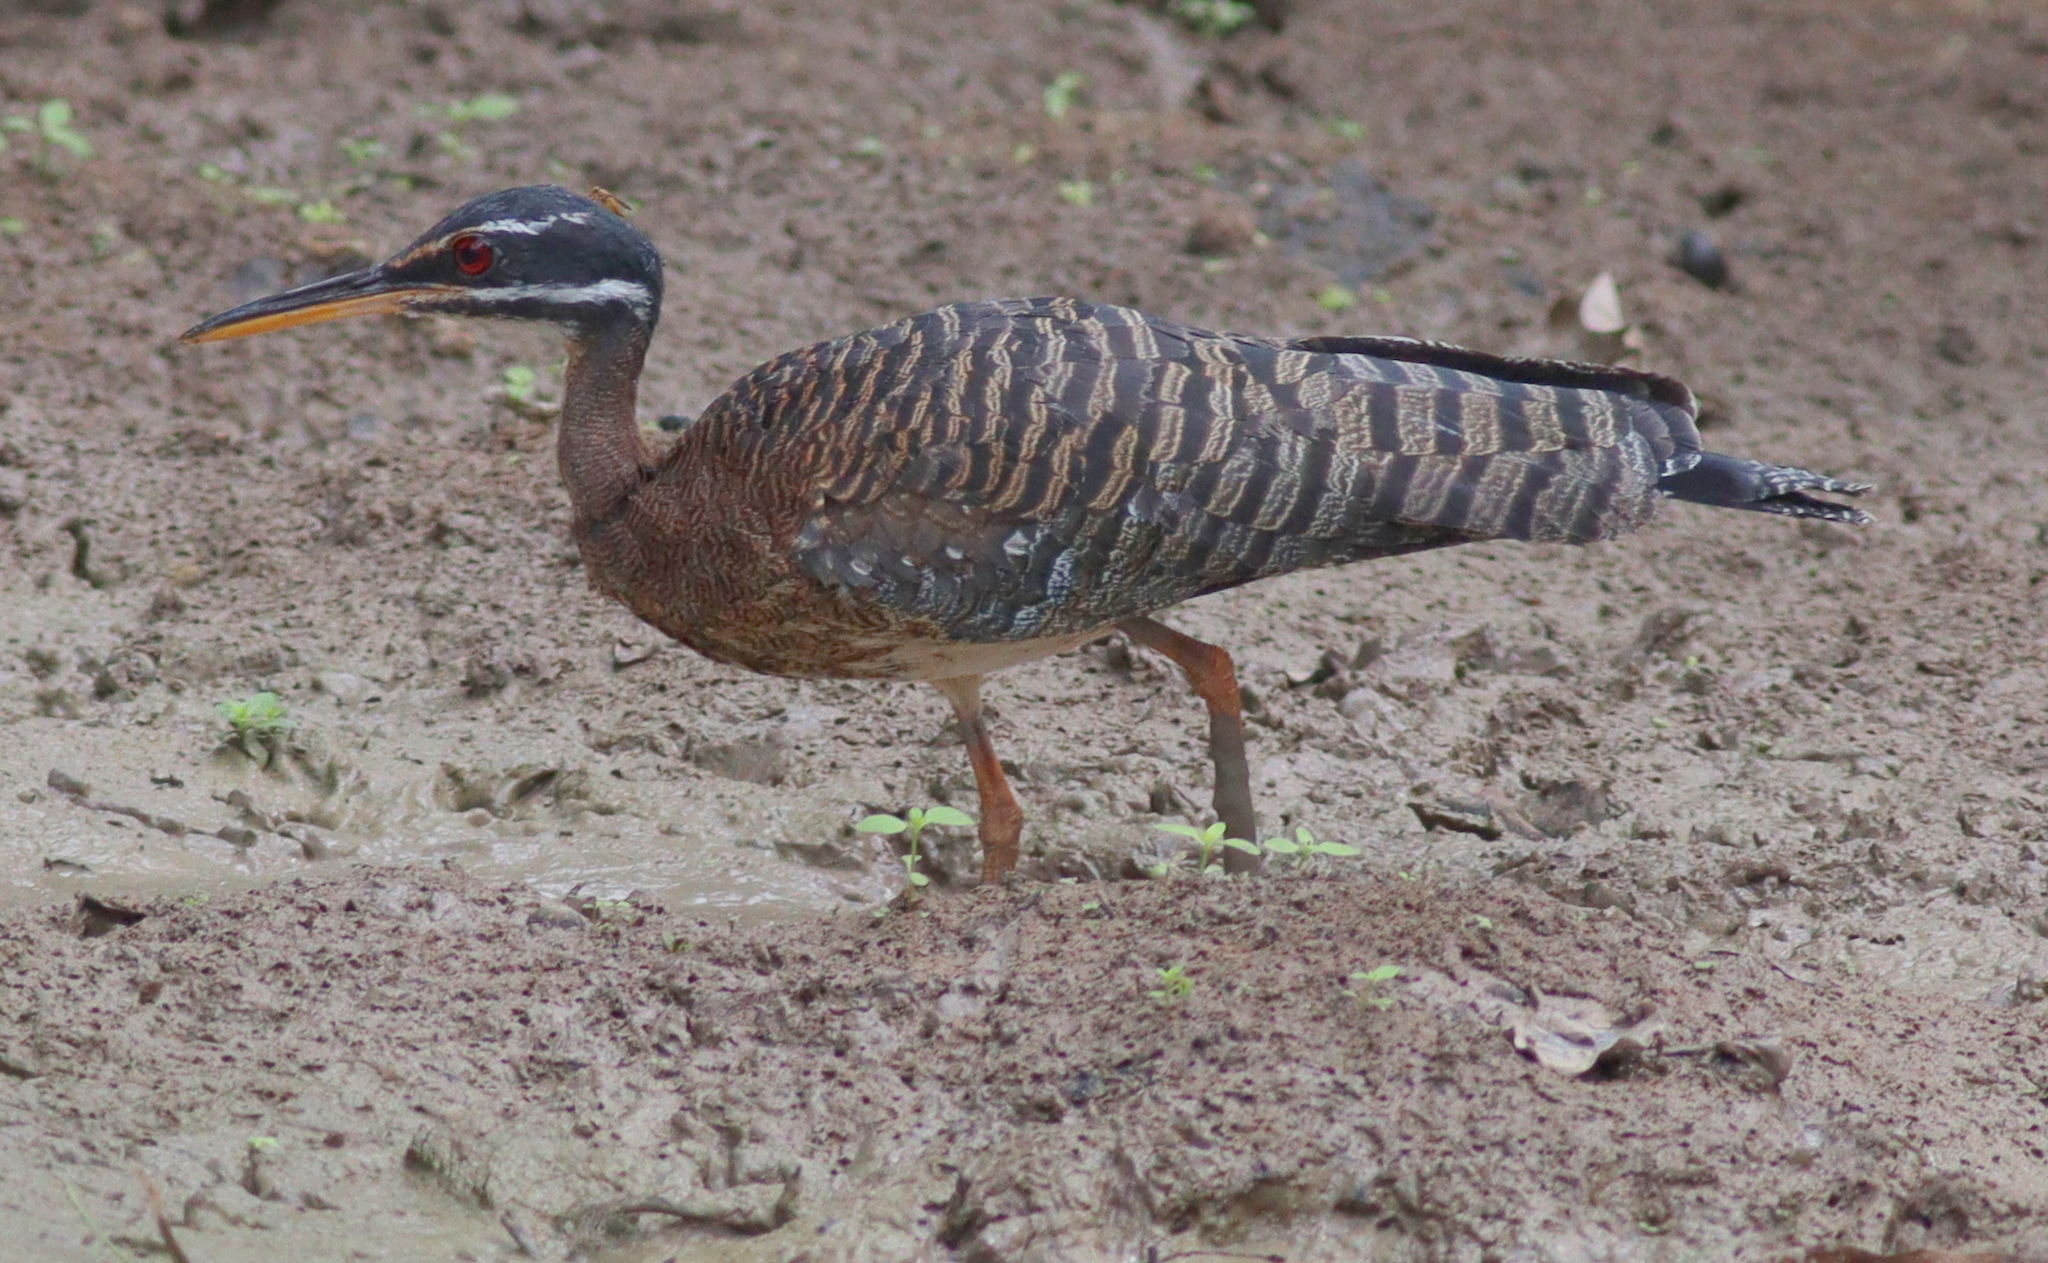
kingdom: Animalia
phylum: Chordata
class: Aves
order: Eurypygiformes
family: Eurypygidae
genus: Eurypyga
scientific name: Eurypyga helias
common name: Sunbittern
